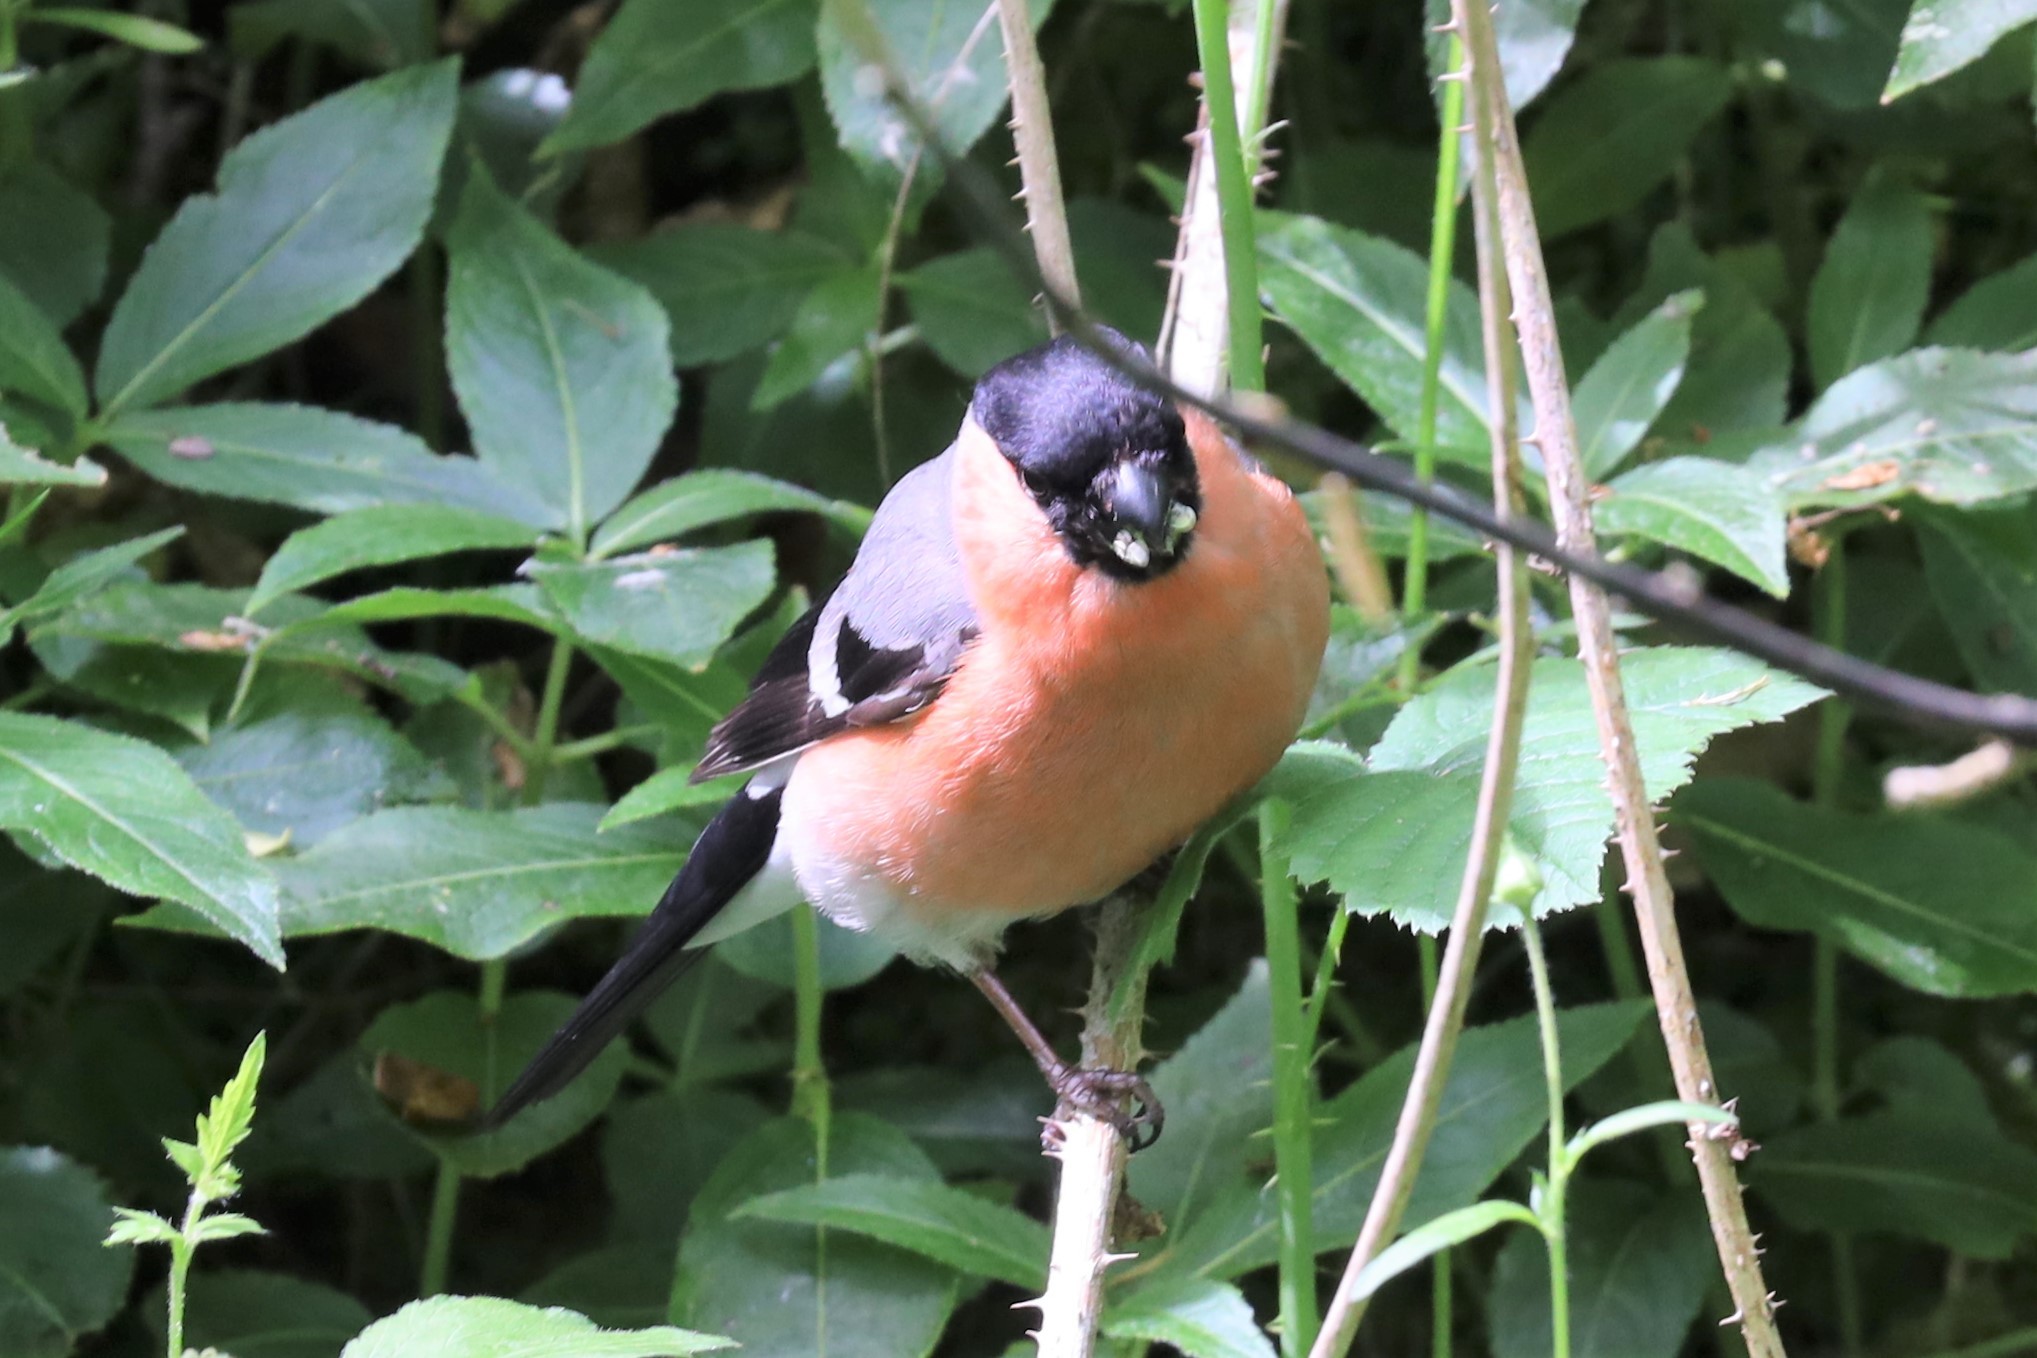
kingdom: Animalia
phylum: Chordata
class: Aves
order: Passeriformes
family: Fringillidae
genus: Pyrrhula
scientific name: Pyrrhula pyrrhula
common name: Eurasian bullfinch
